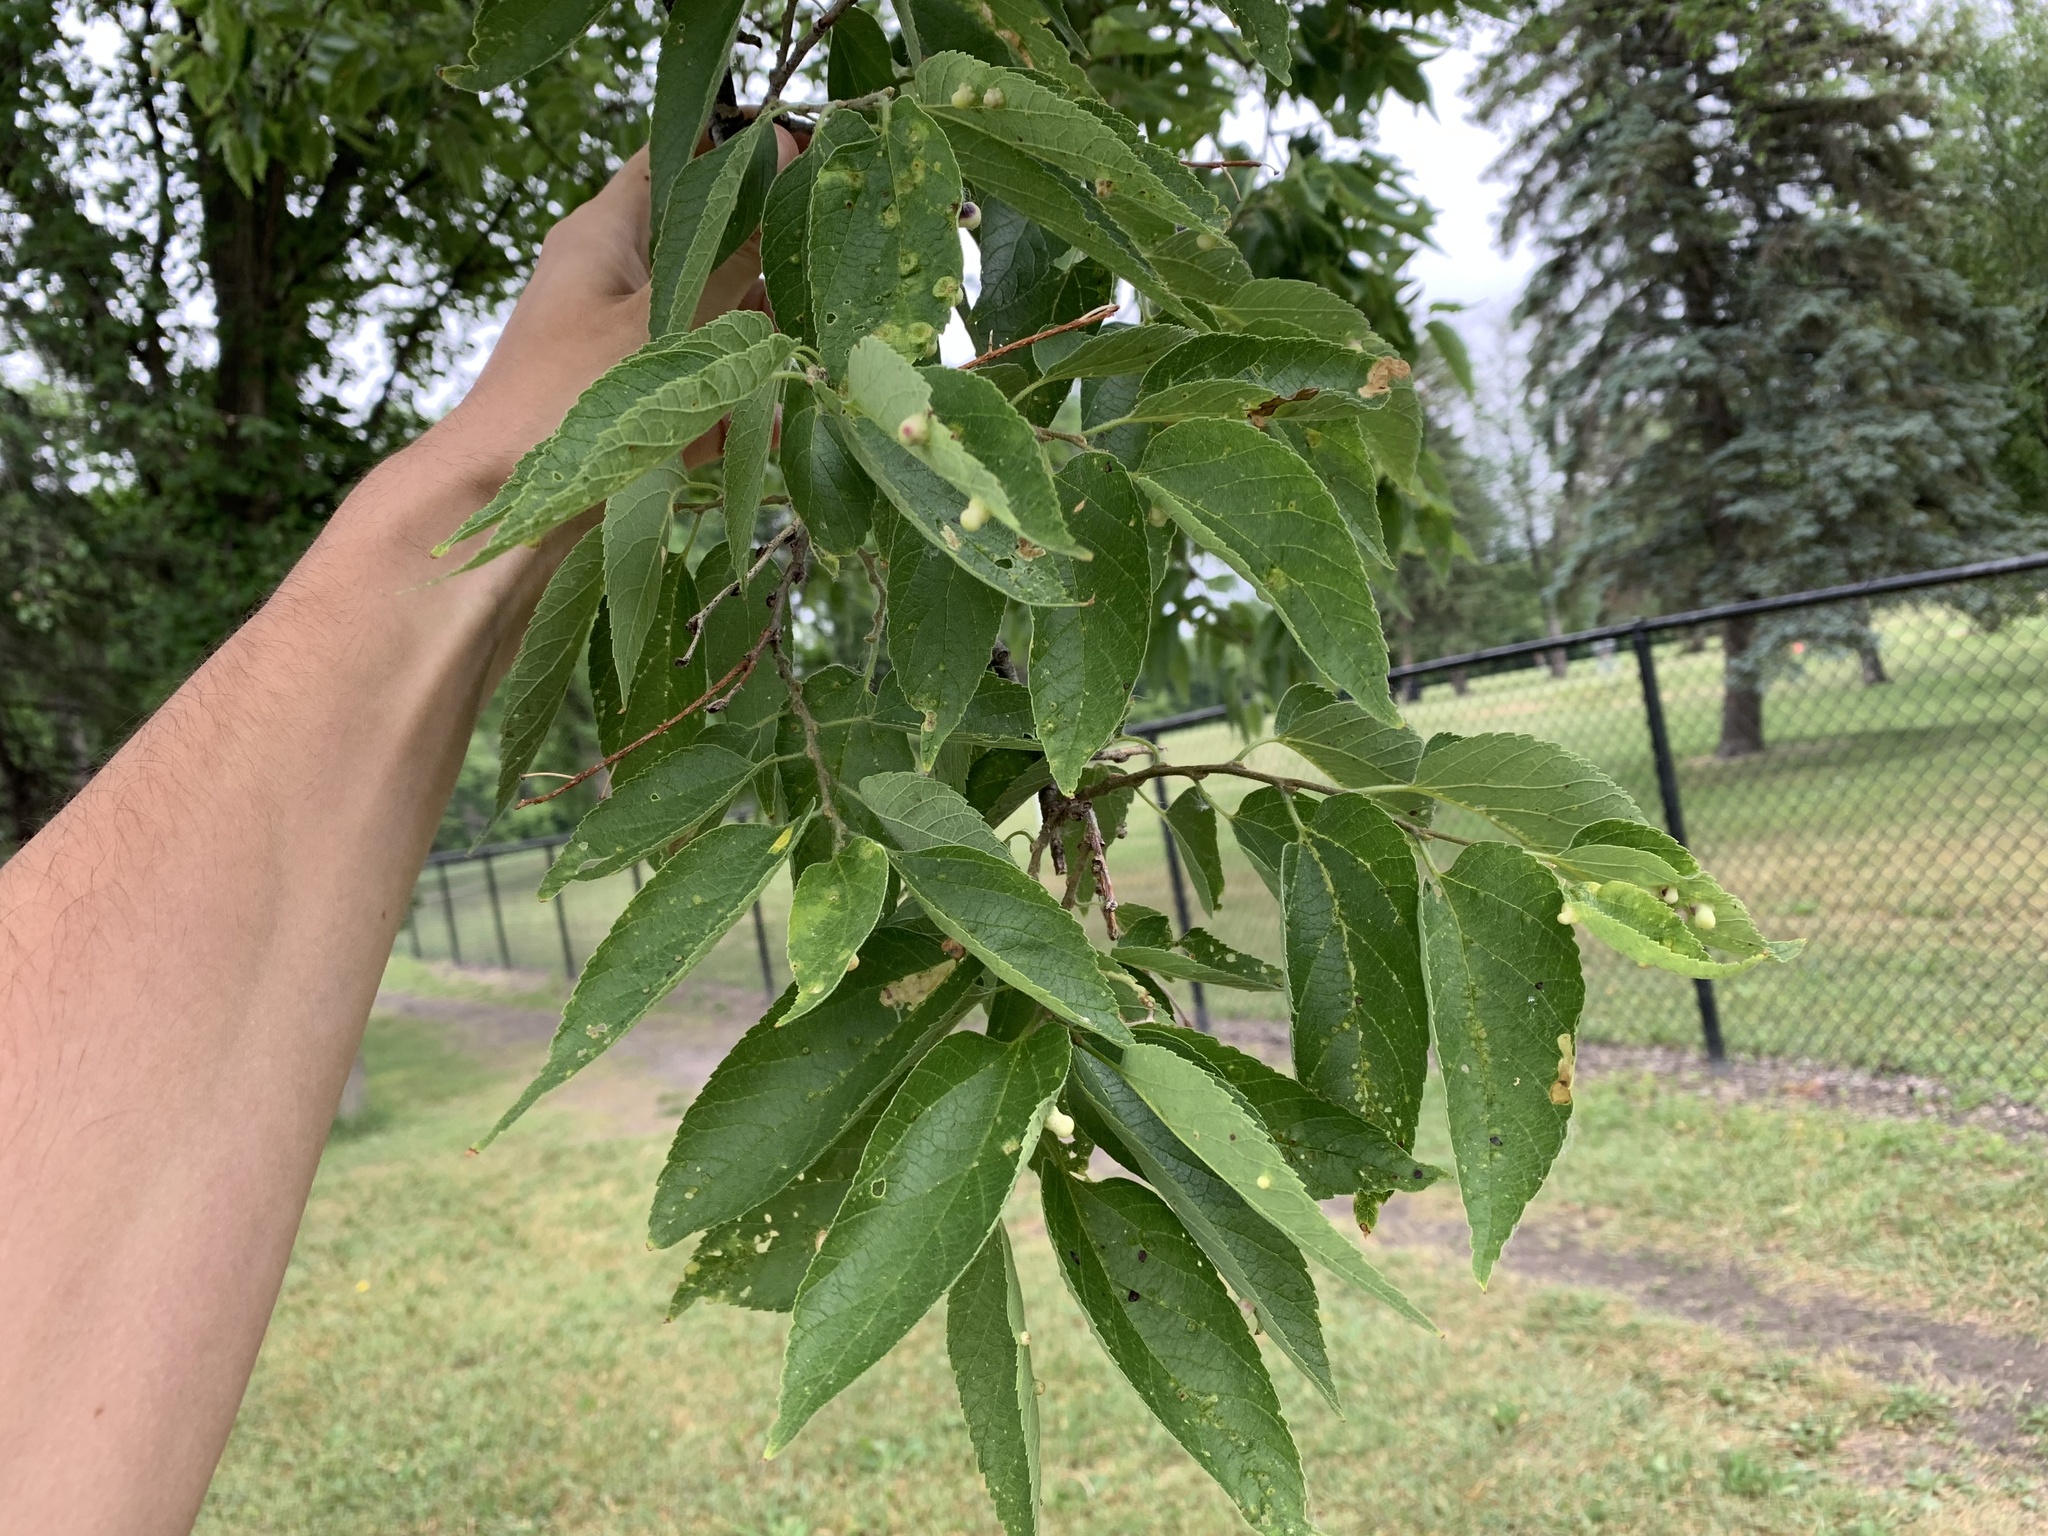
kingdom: Animalia
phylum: Arthropoda
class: Insecta
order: Hemiptera
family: Aphalaridae
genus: Pachypsylla
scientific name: Pachypsylla celtidismamma
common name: Hackberry nipplegall psyllid
